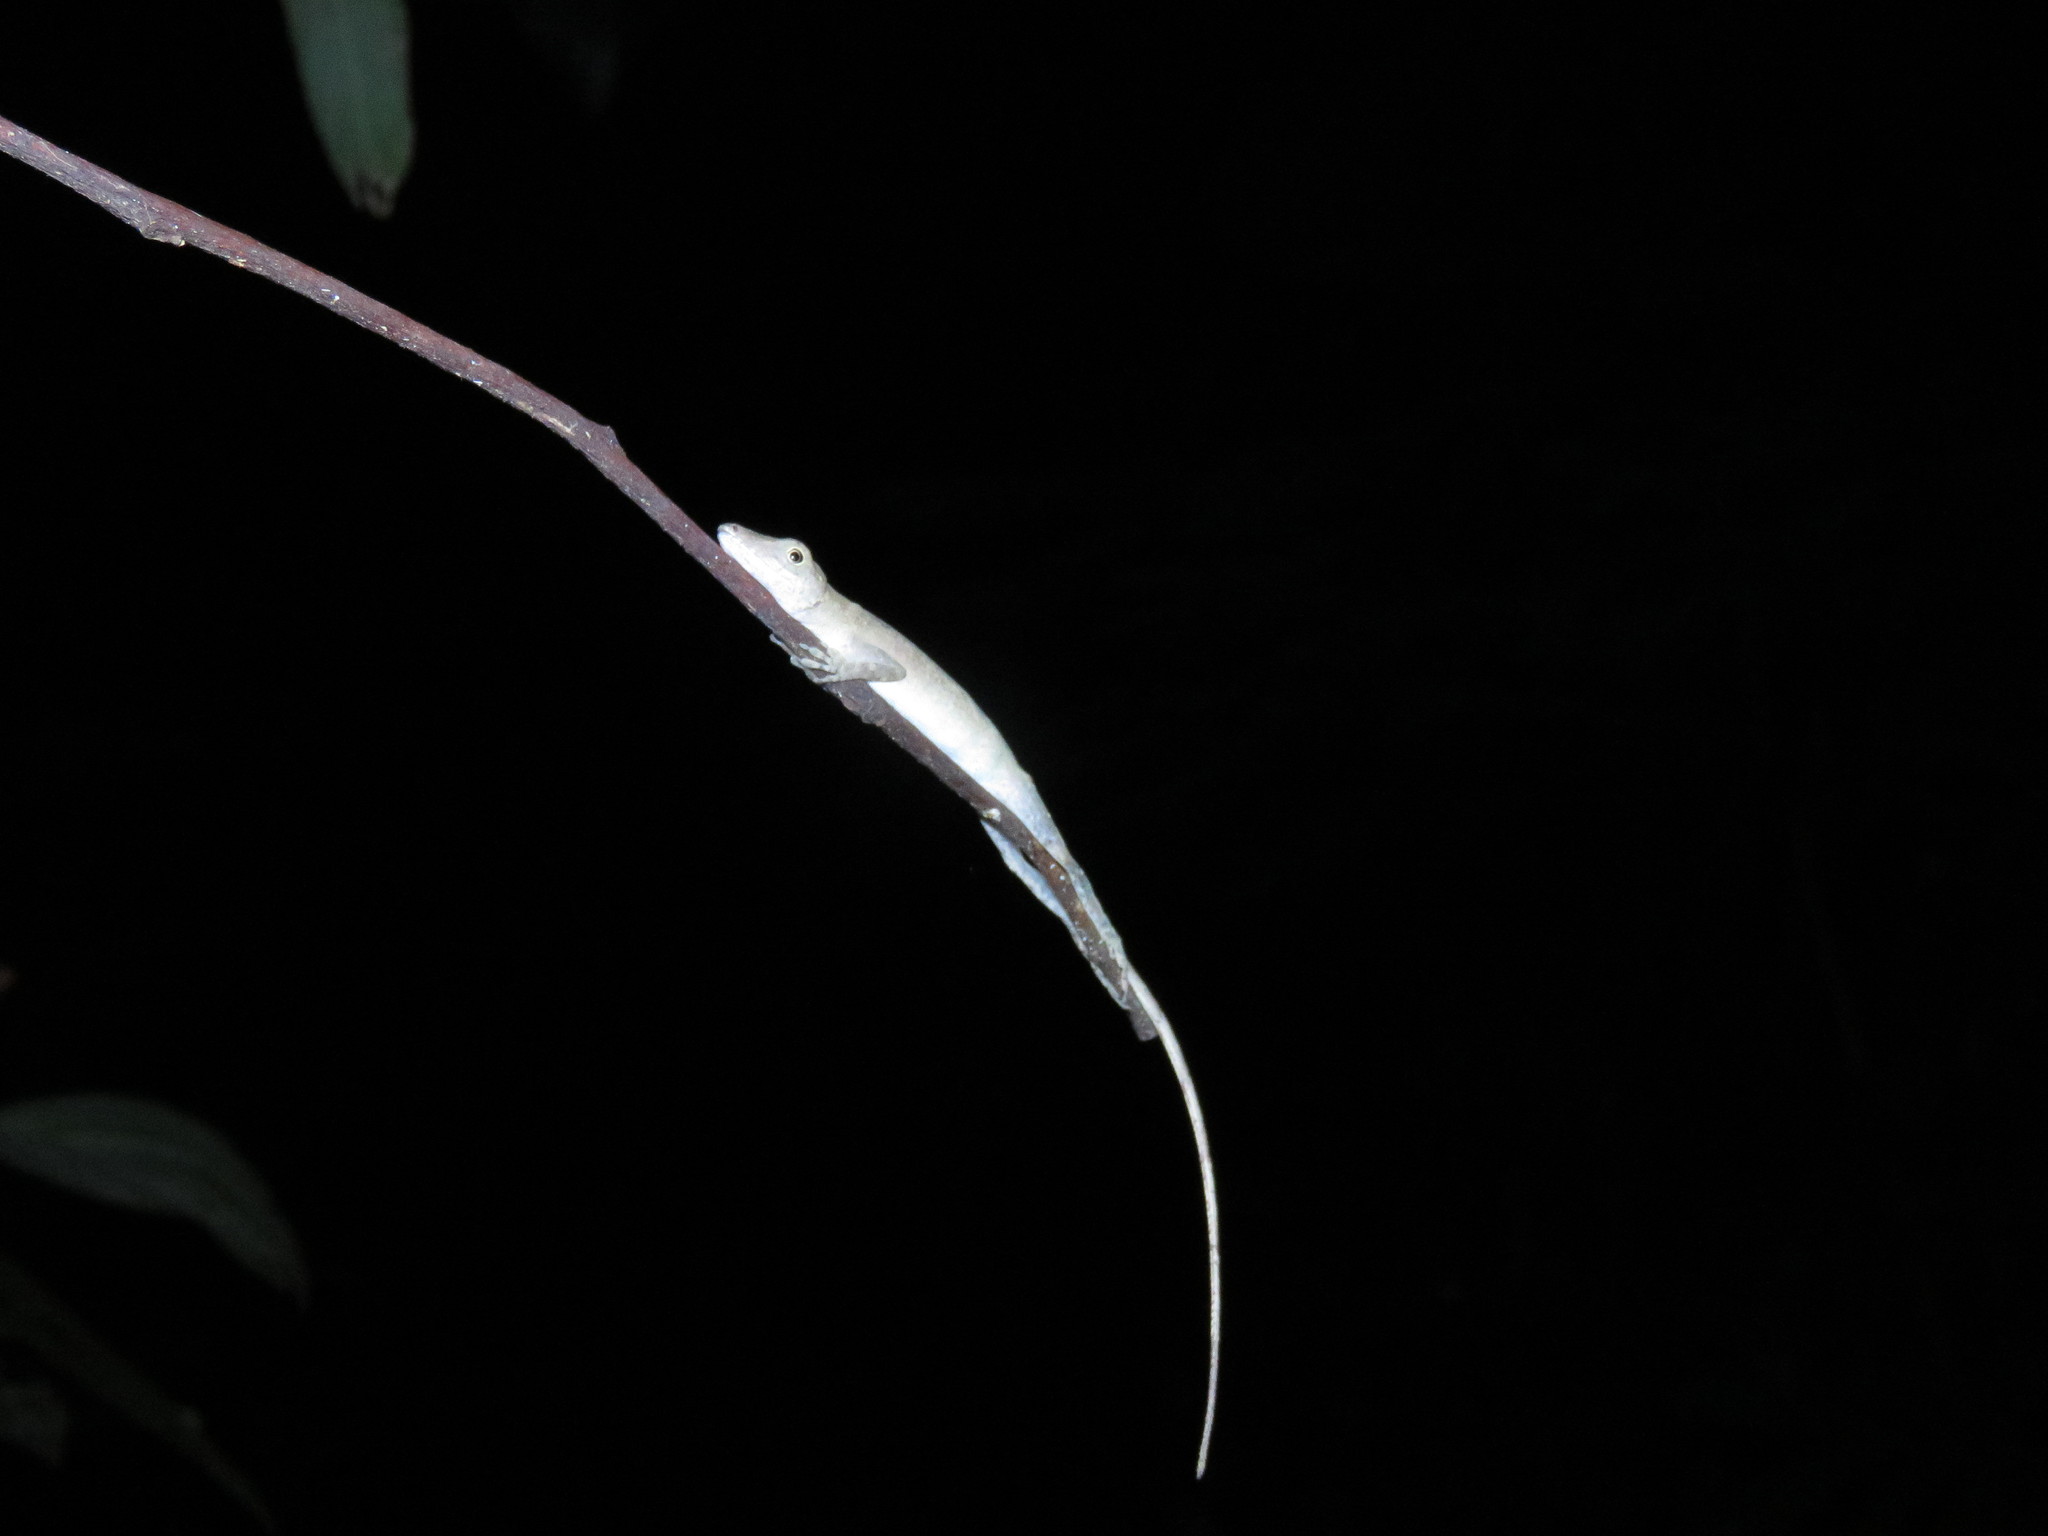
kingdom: Animalia
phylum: Chordata
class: Squamata
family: Dactyloidae
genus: Anolis
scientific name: Anolis fuscoauratus
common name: Brown-eared anole
